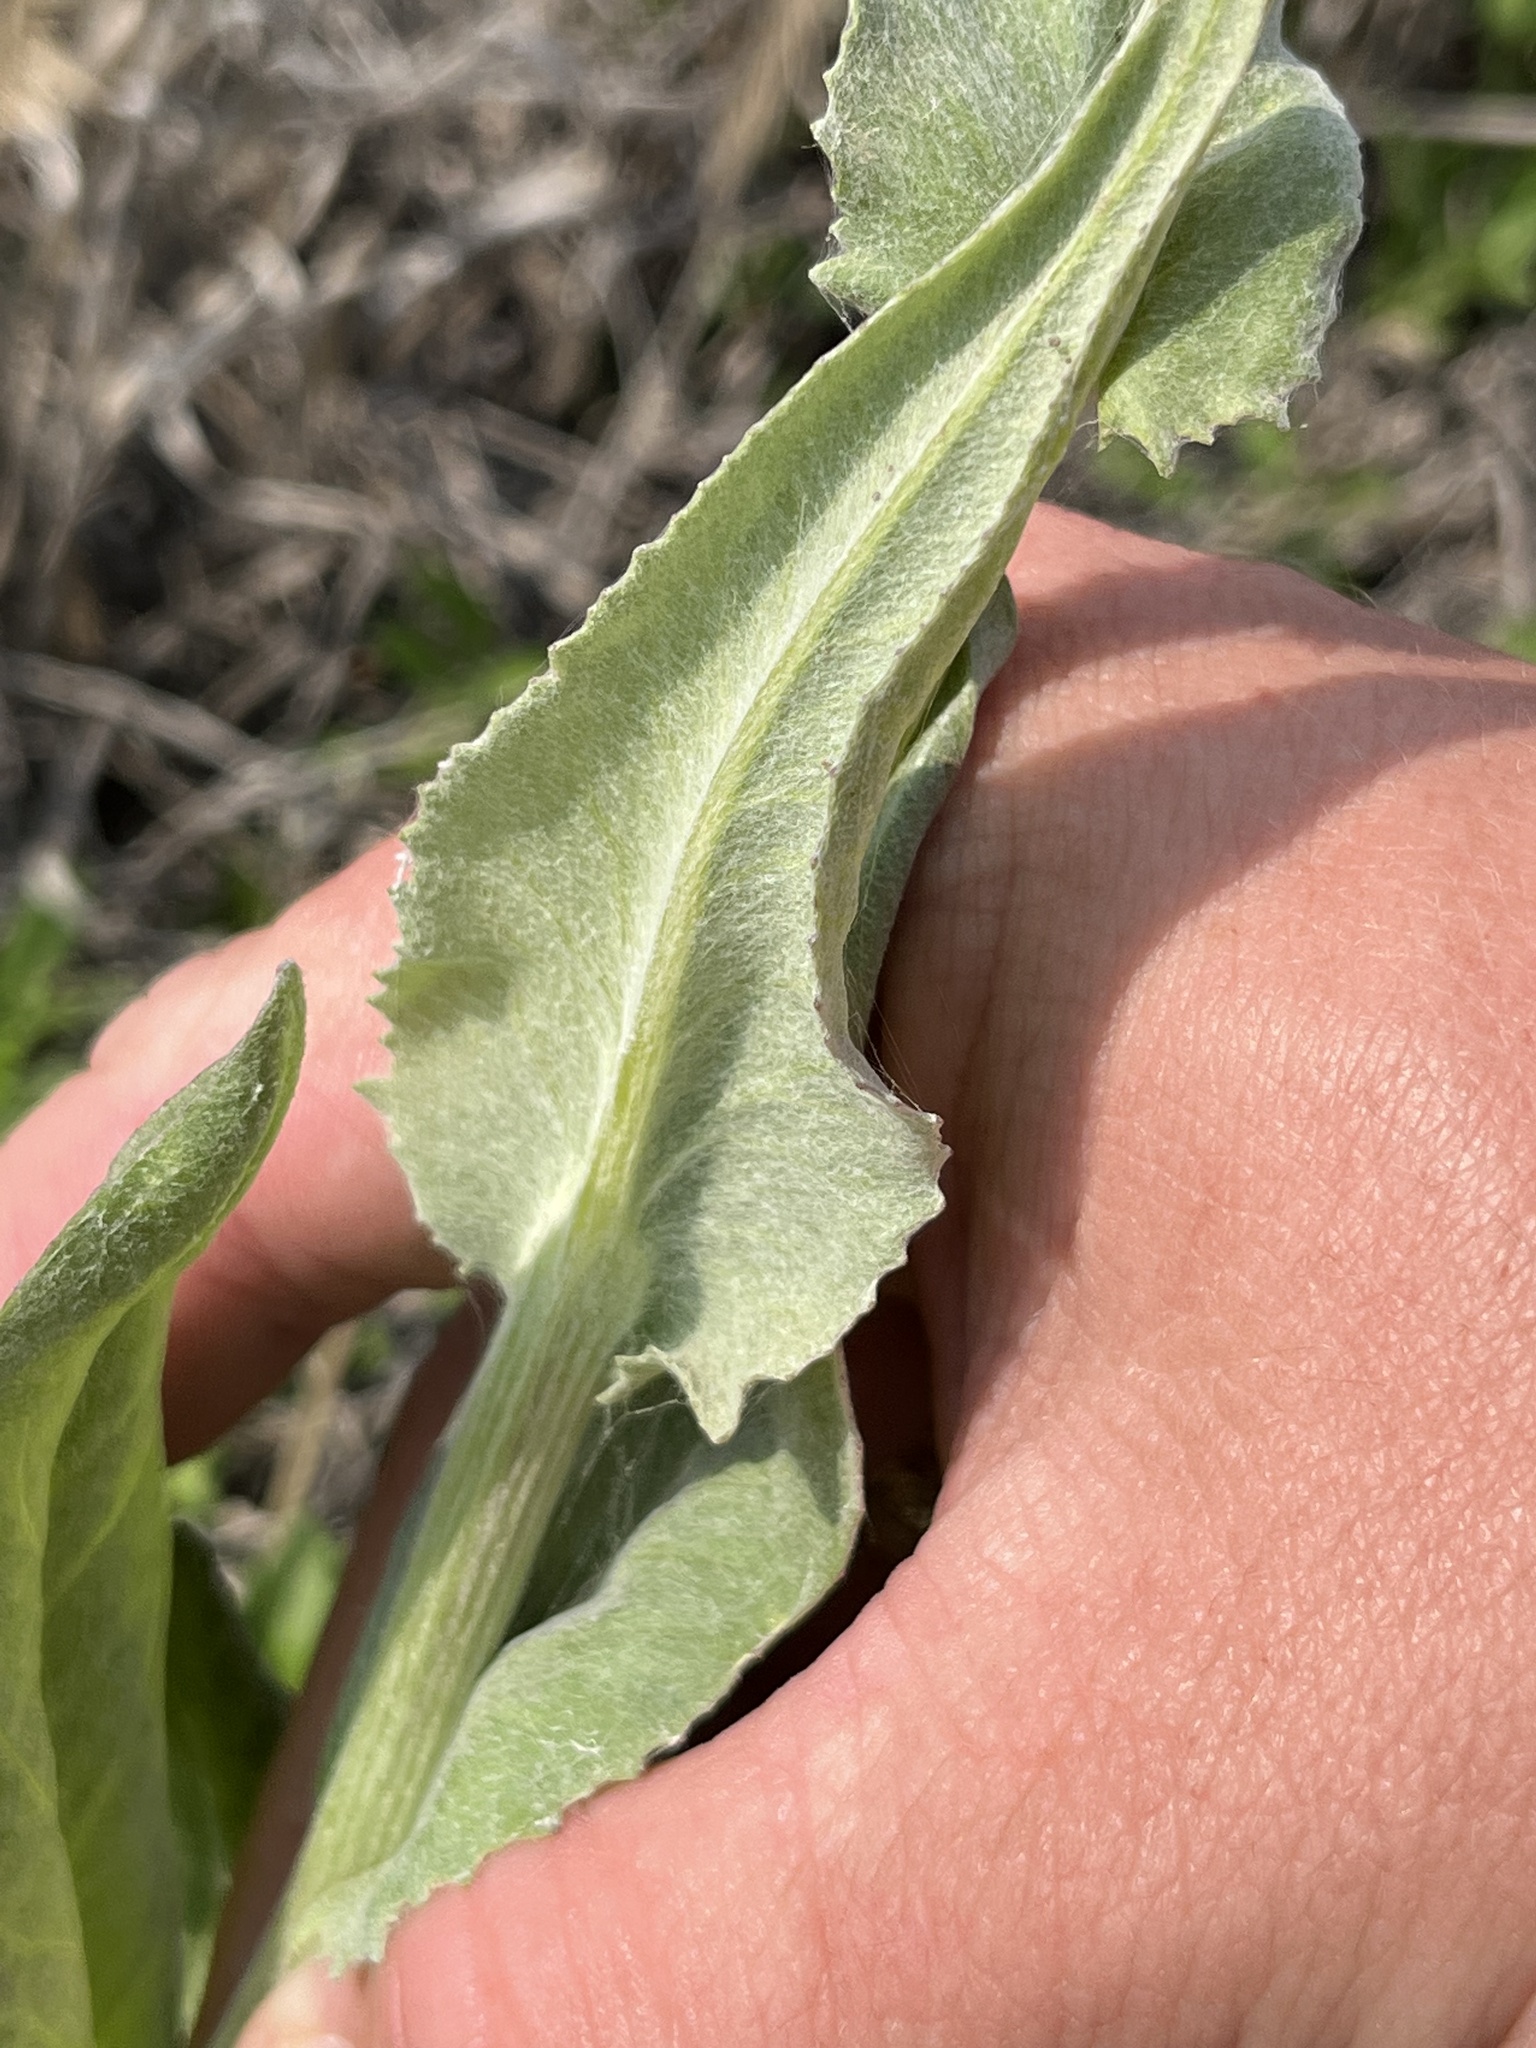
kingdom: Plantae
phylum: Tracheophyta
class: Magnoliopsida
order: Asterales
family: Asteraceae
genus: Senecio
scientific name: Senecio ampullaceus
